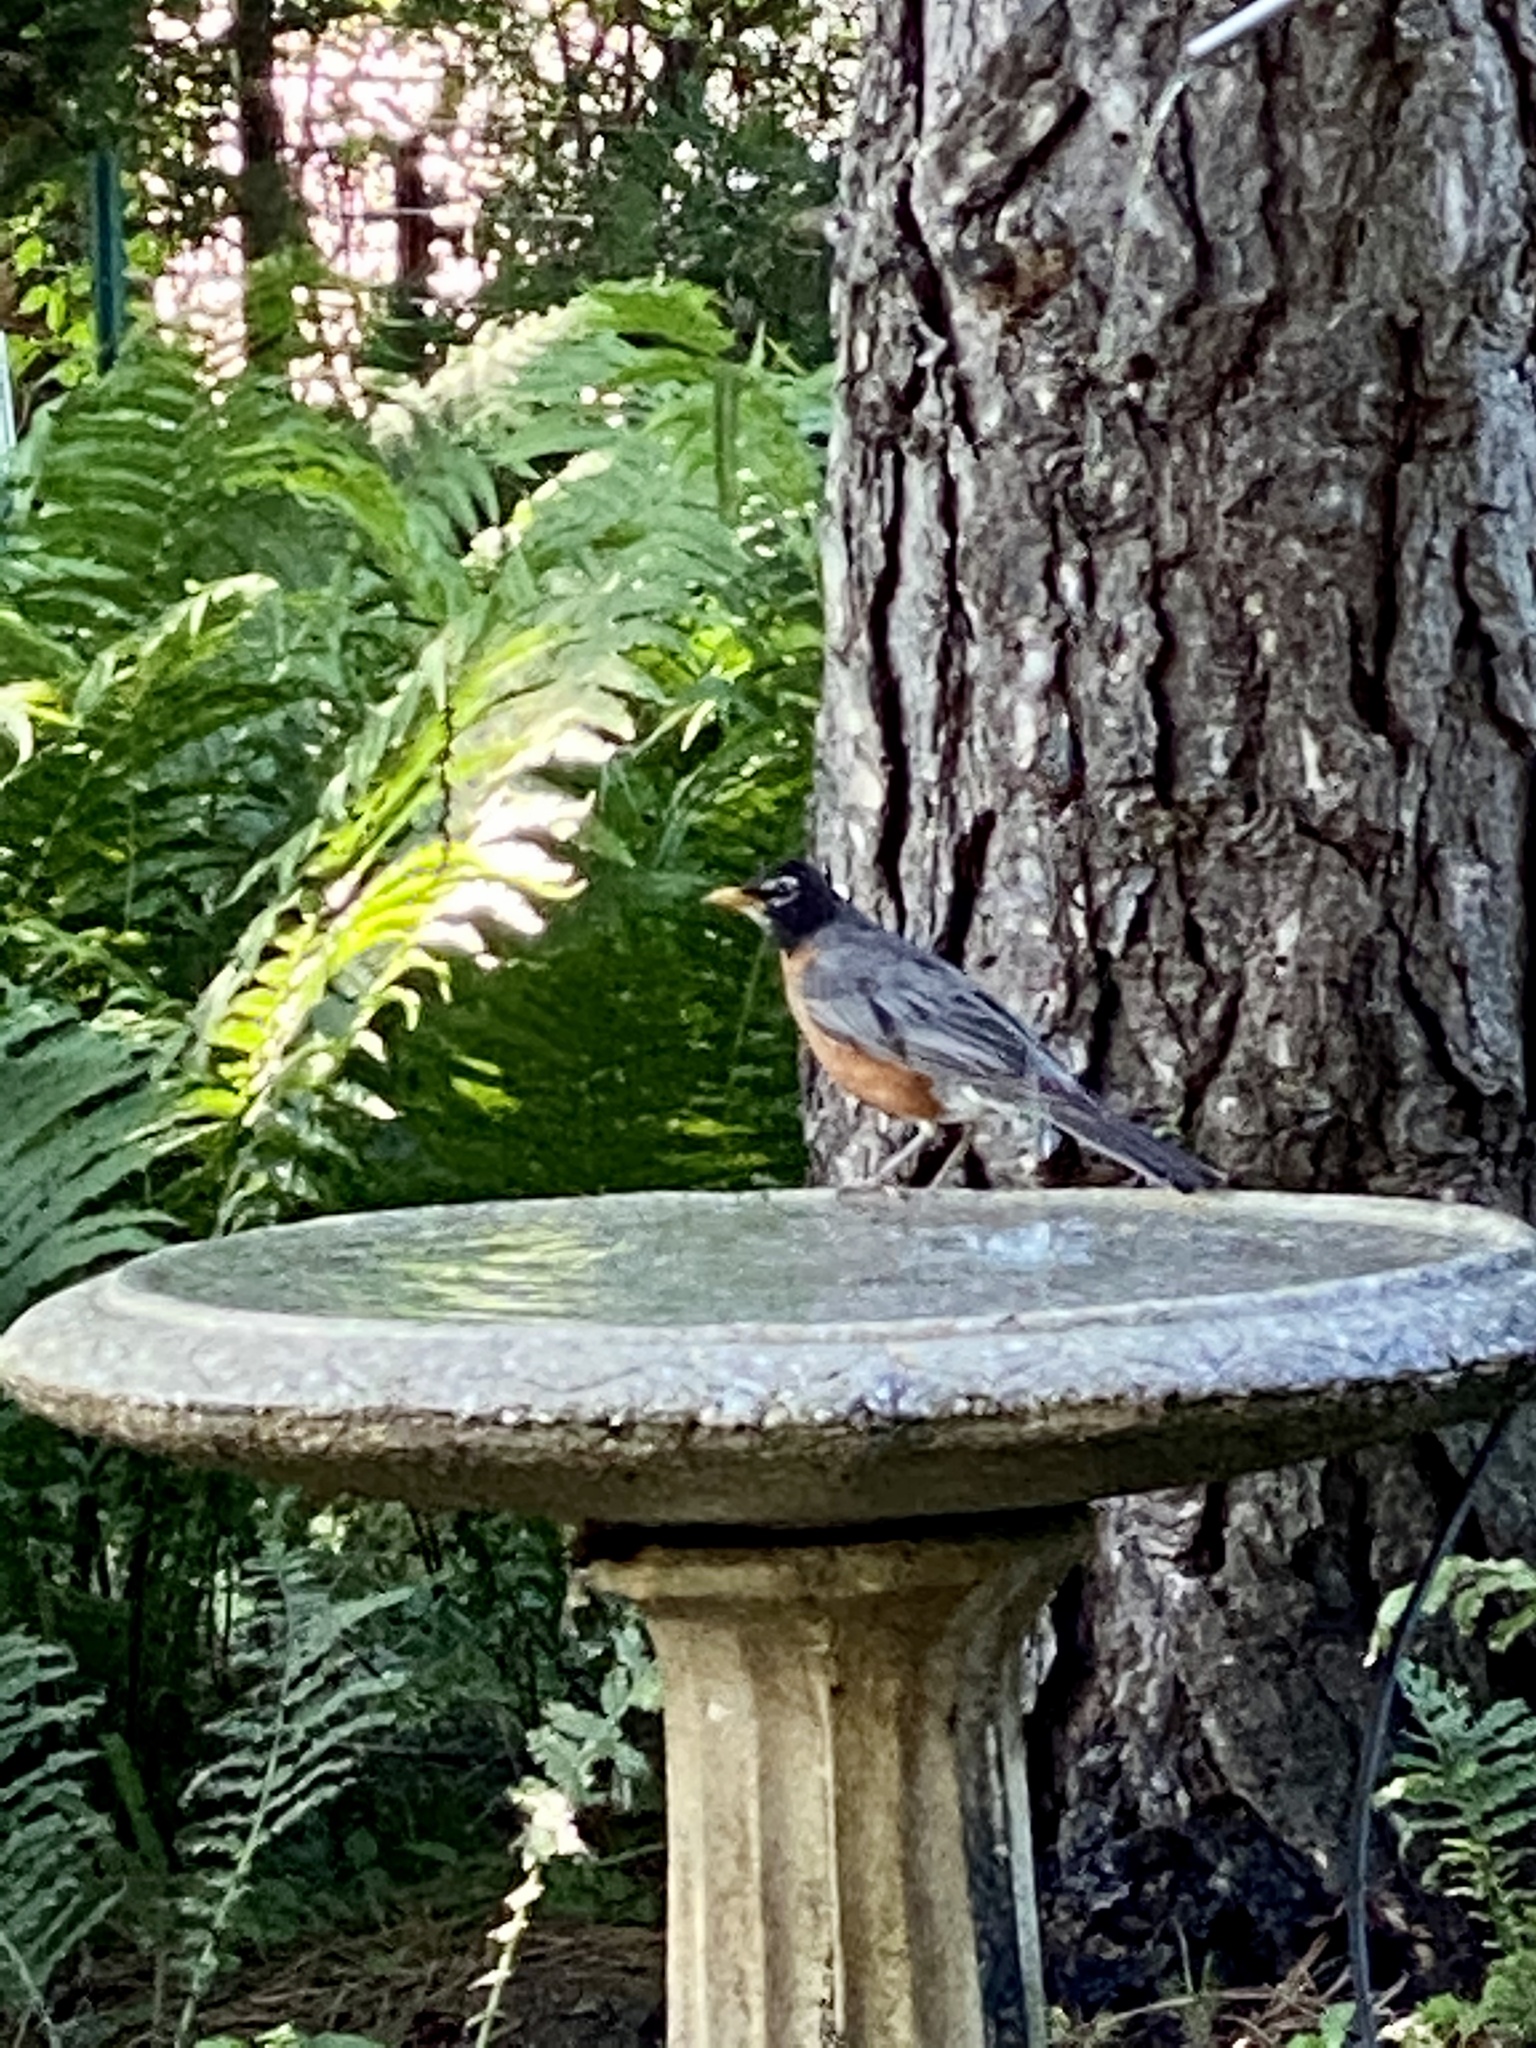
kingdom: Animalia
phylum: Chordata
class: Aves
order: Passeriformes
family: Turdidae
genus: Turdus
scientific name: Turdus migratorius
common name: American robin
